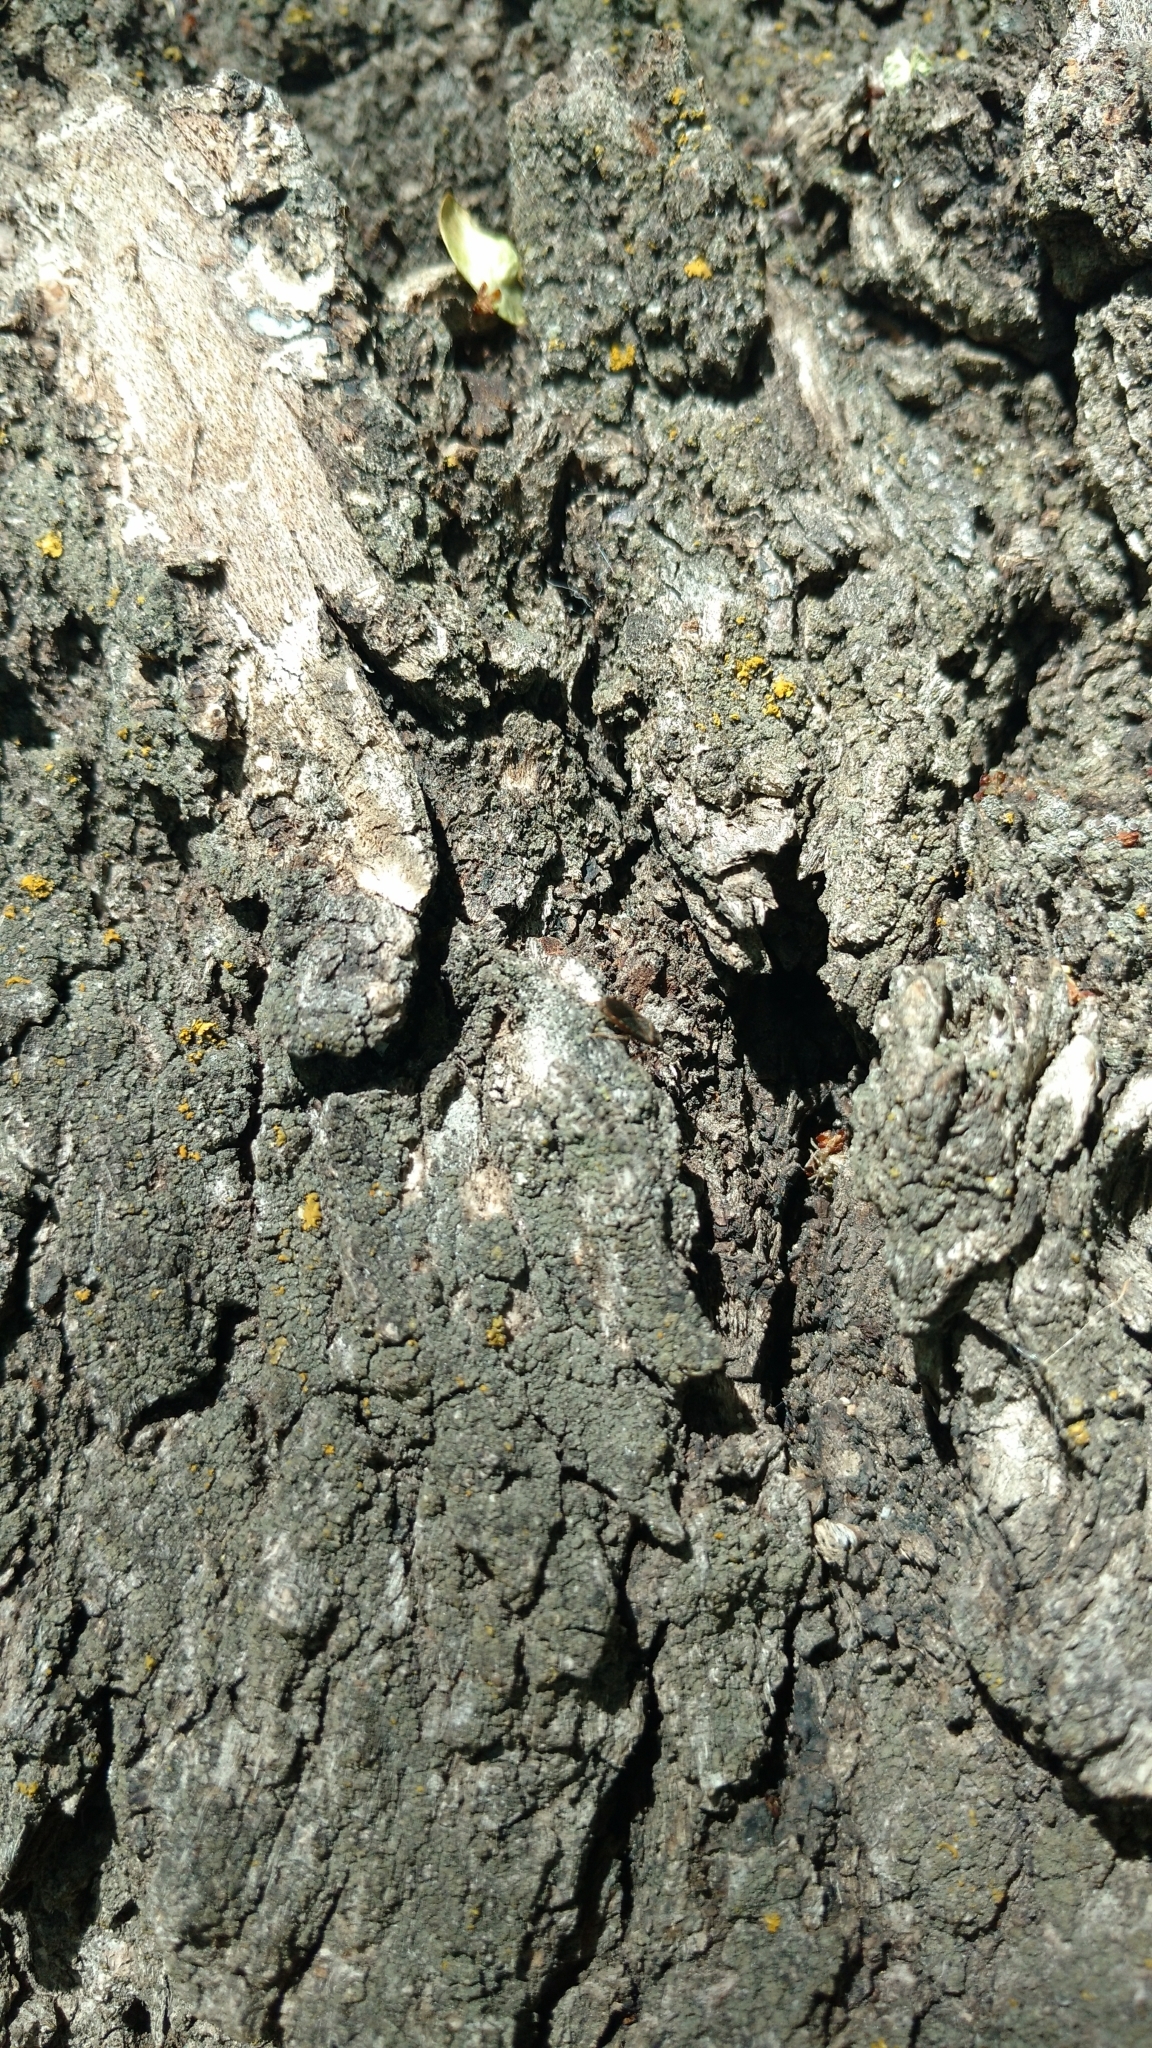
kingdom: Animalia
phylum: Arthropoda
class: Insecta
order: Hemiptera
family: Lygaeidae
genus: Arocatus
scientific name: Arocatus melanocephalus
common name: Lygaeid bug
